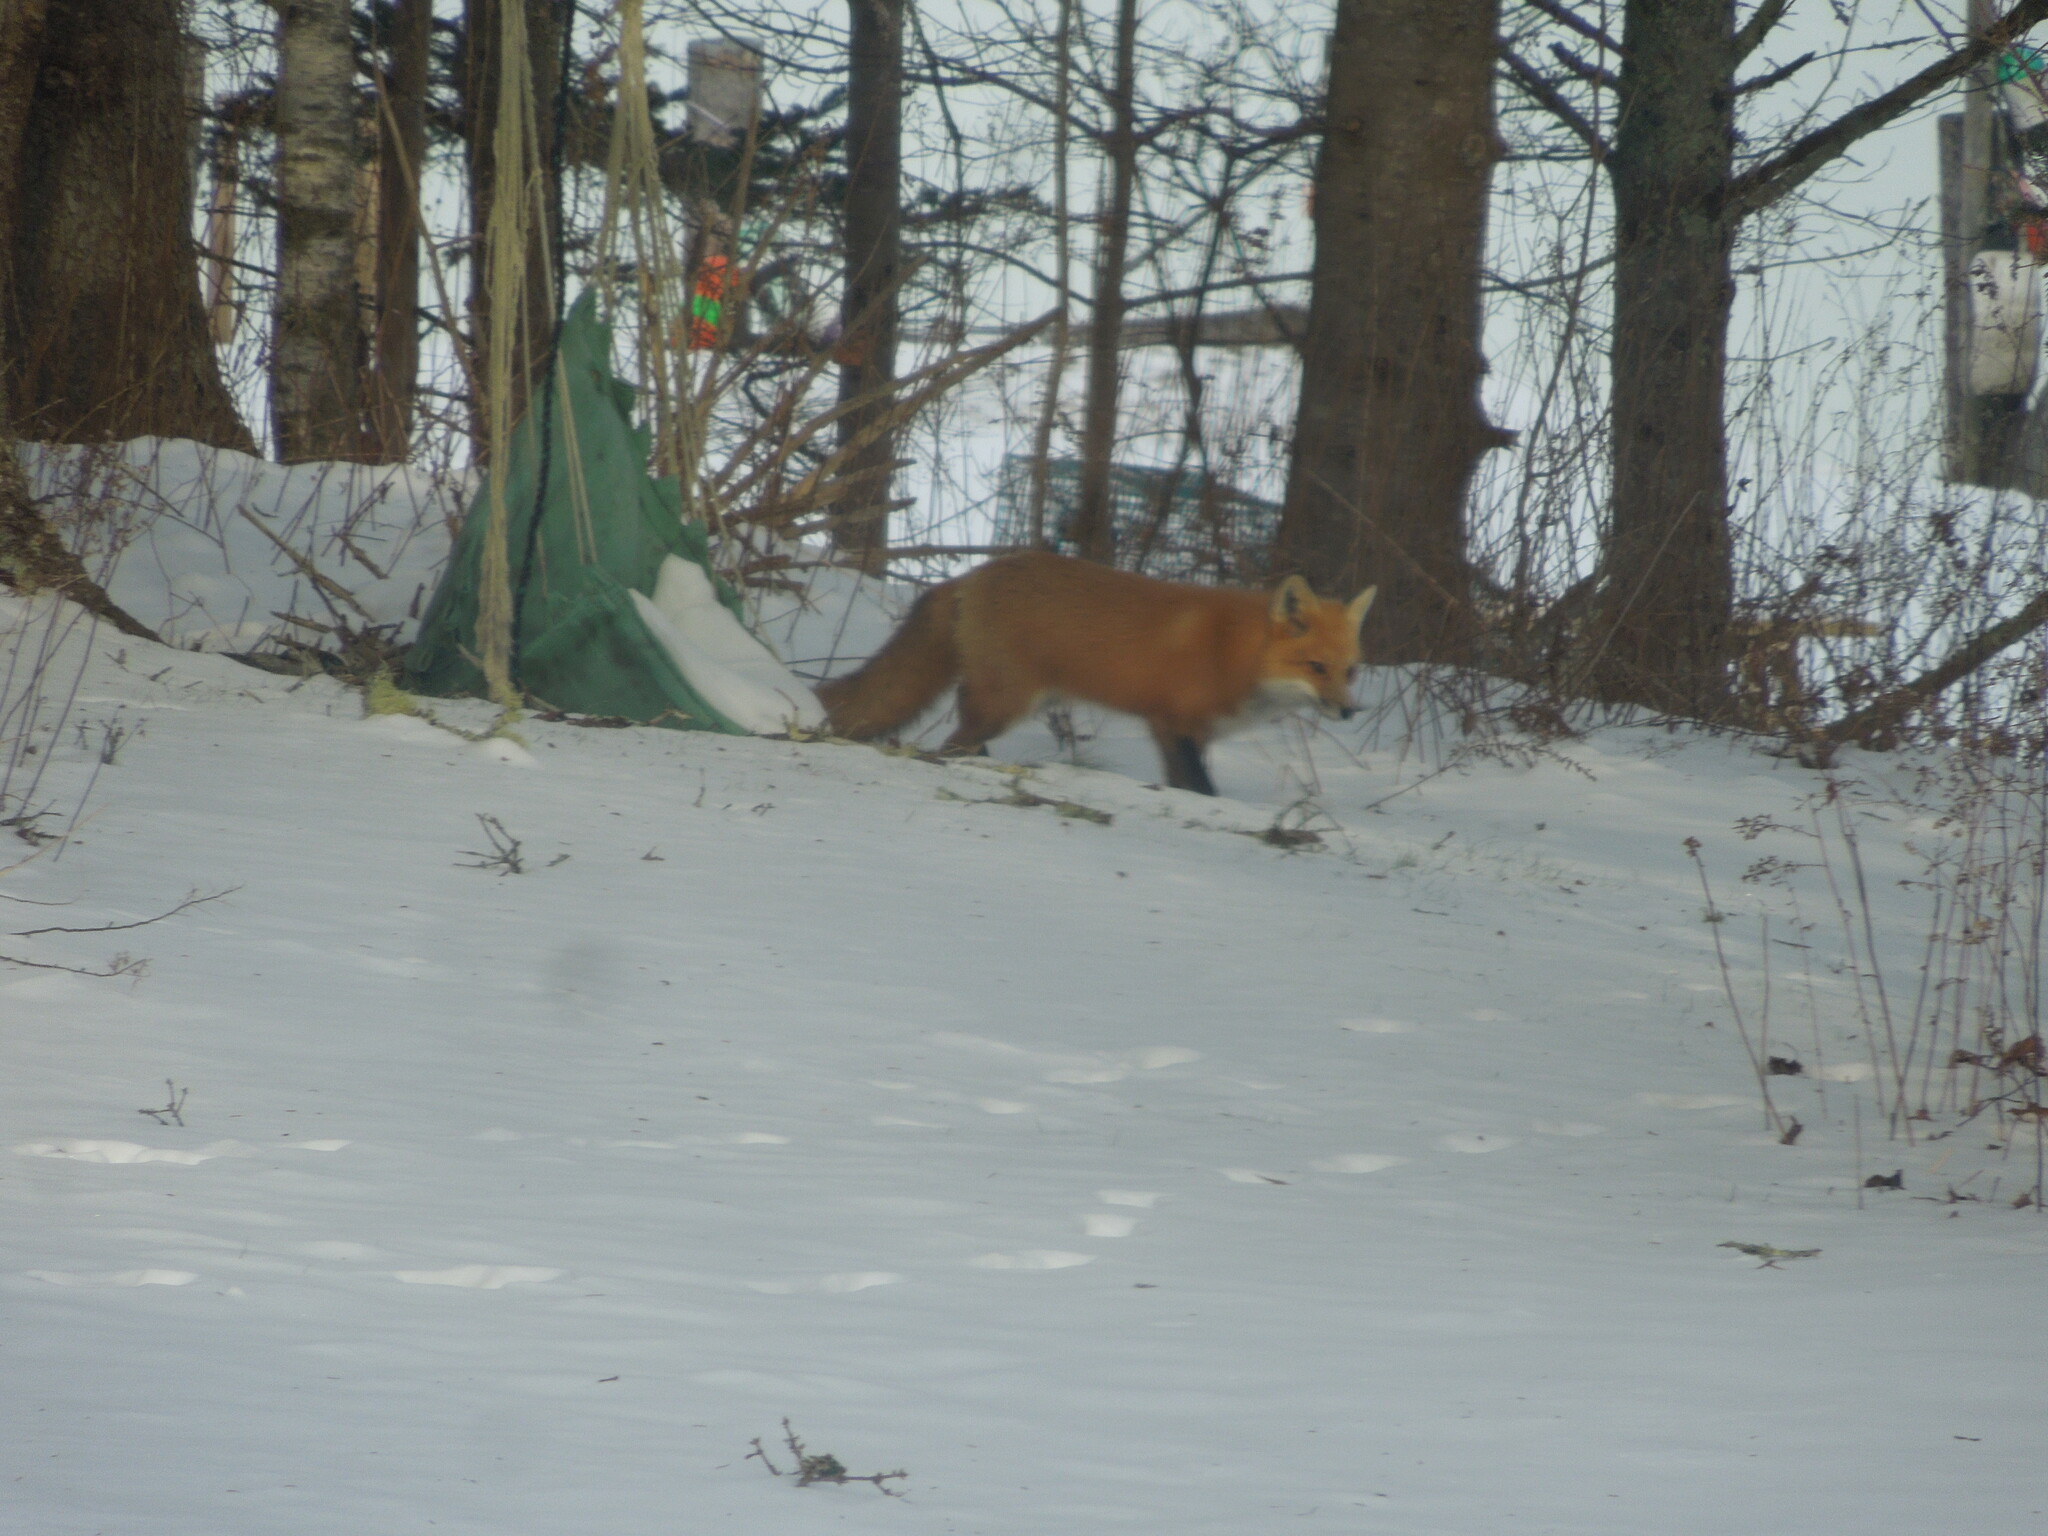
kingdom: Animalia
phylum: Chordata
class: Mammalia
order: Carnivora
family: Canidae
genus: Vulpes
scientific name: Vulpes vulpes
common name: Red fox
